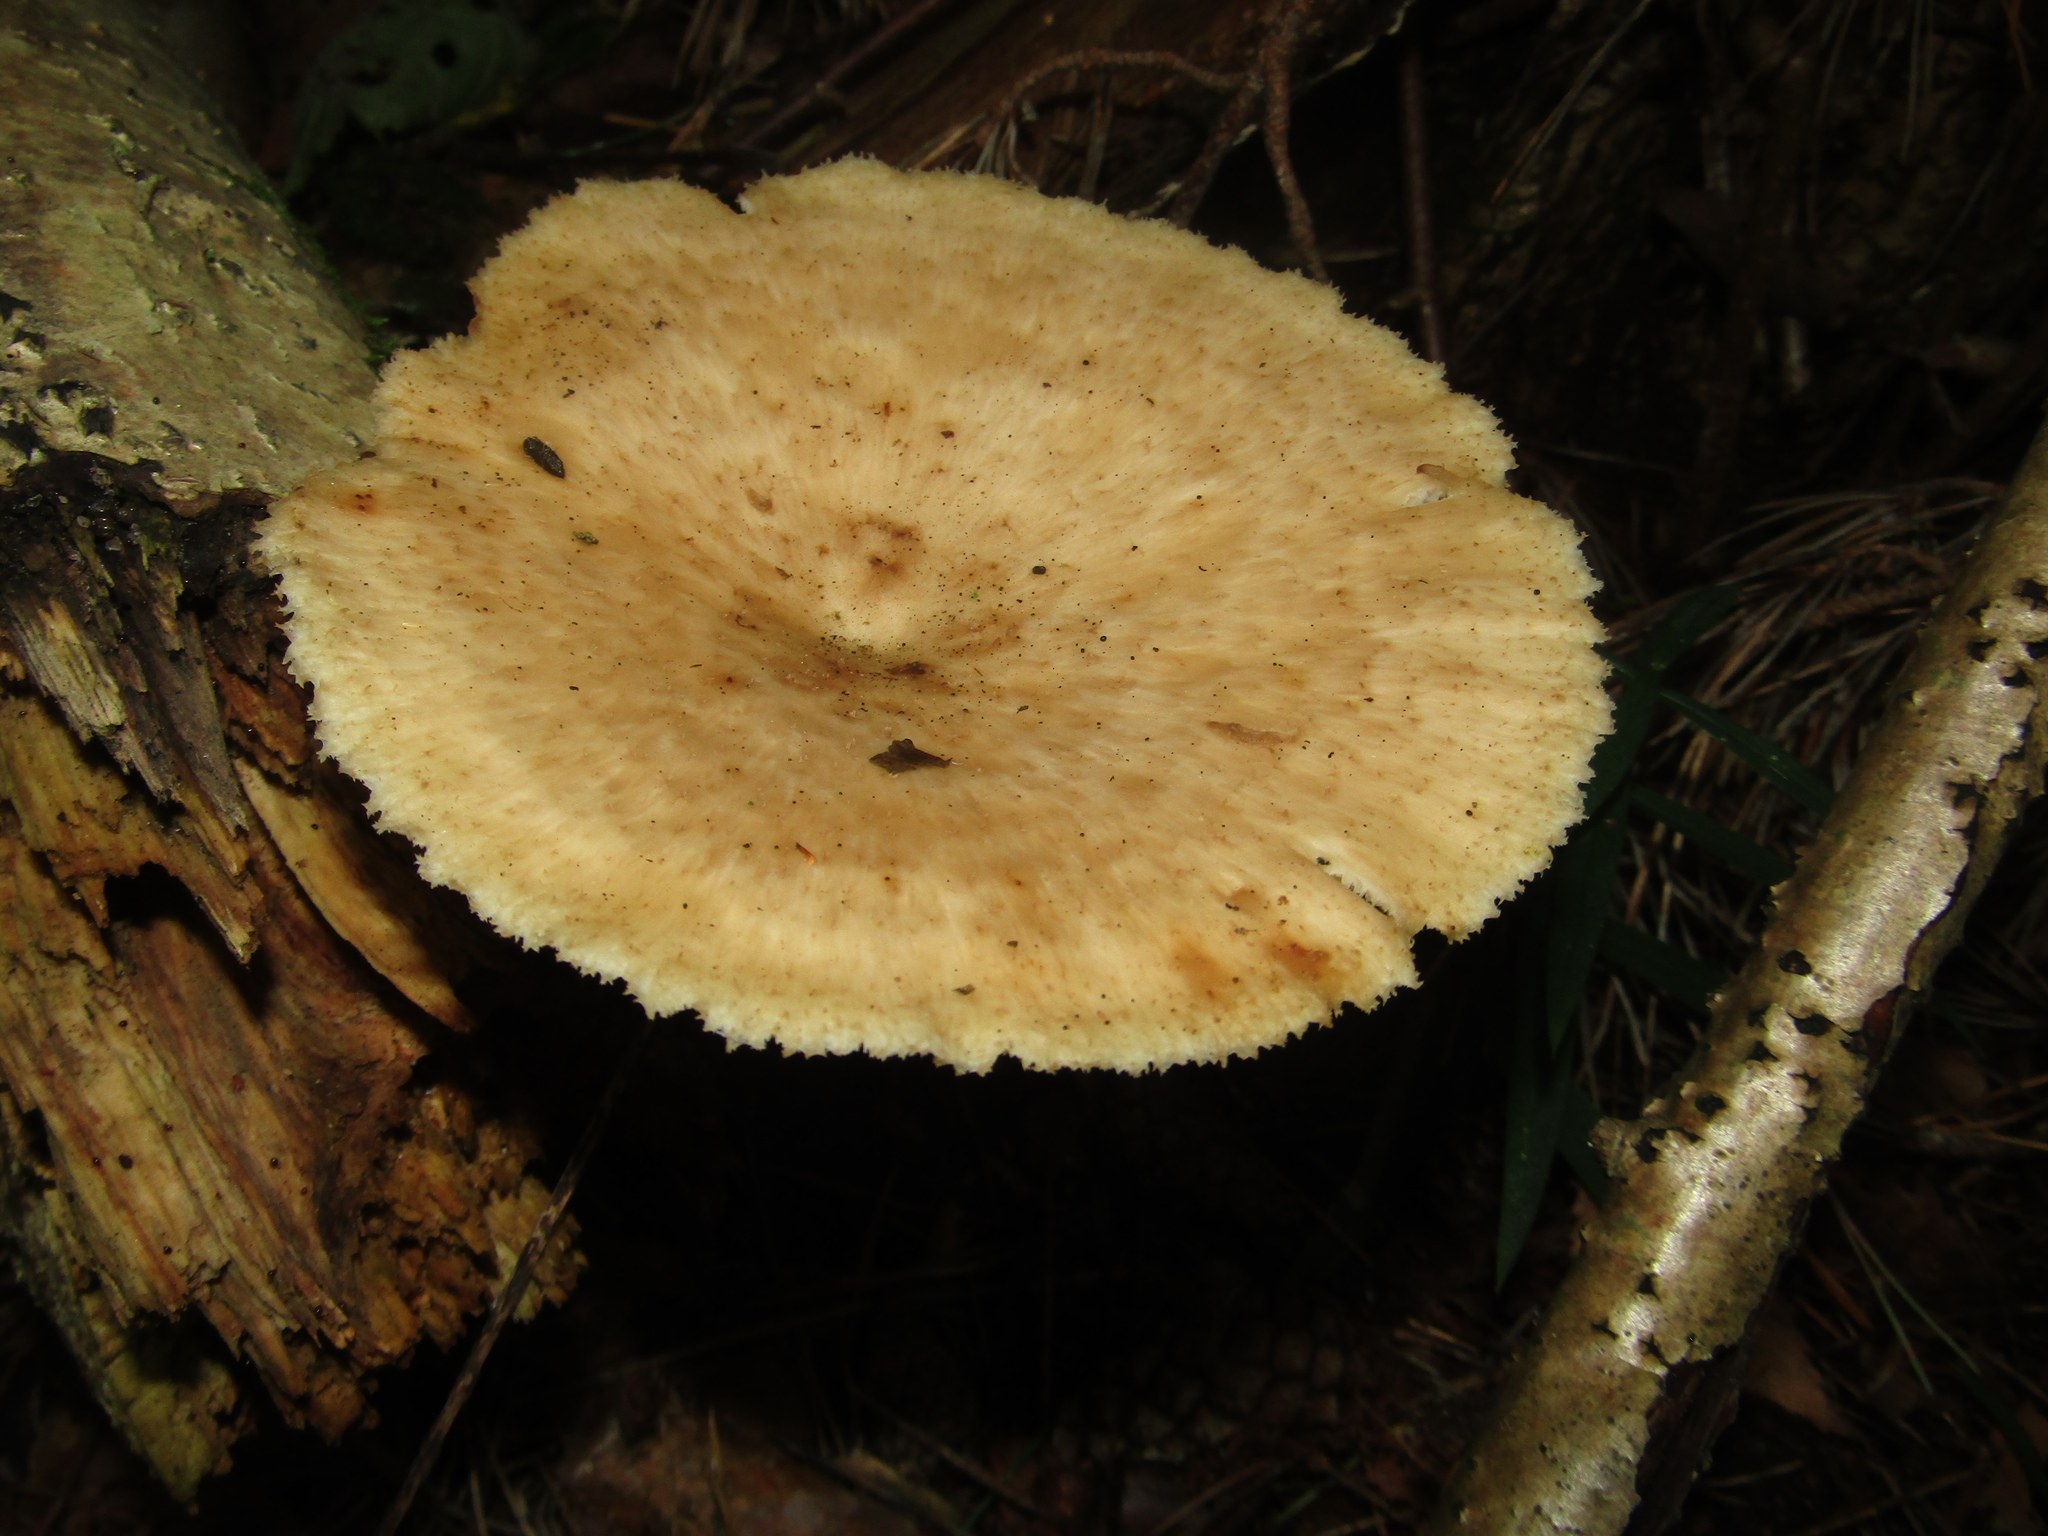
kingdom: Fungi
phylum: Basidiomycota
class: Agaricomycetes
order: Polyporales
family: Polyporaceae
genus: Polyporus
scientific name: Polyporus tuberaster
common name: Tuberous polypore
